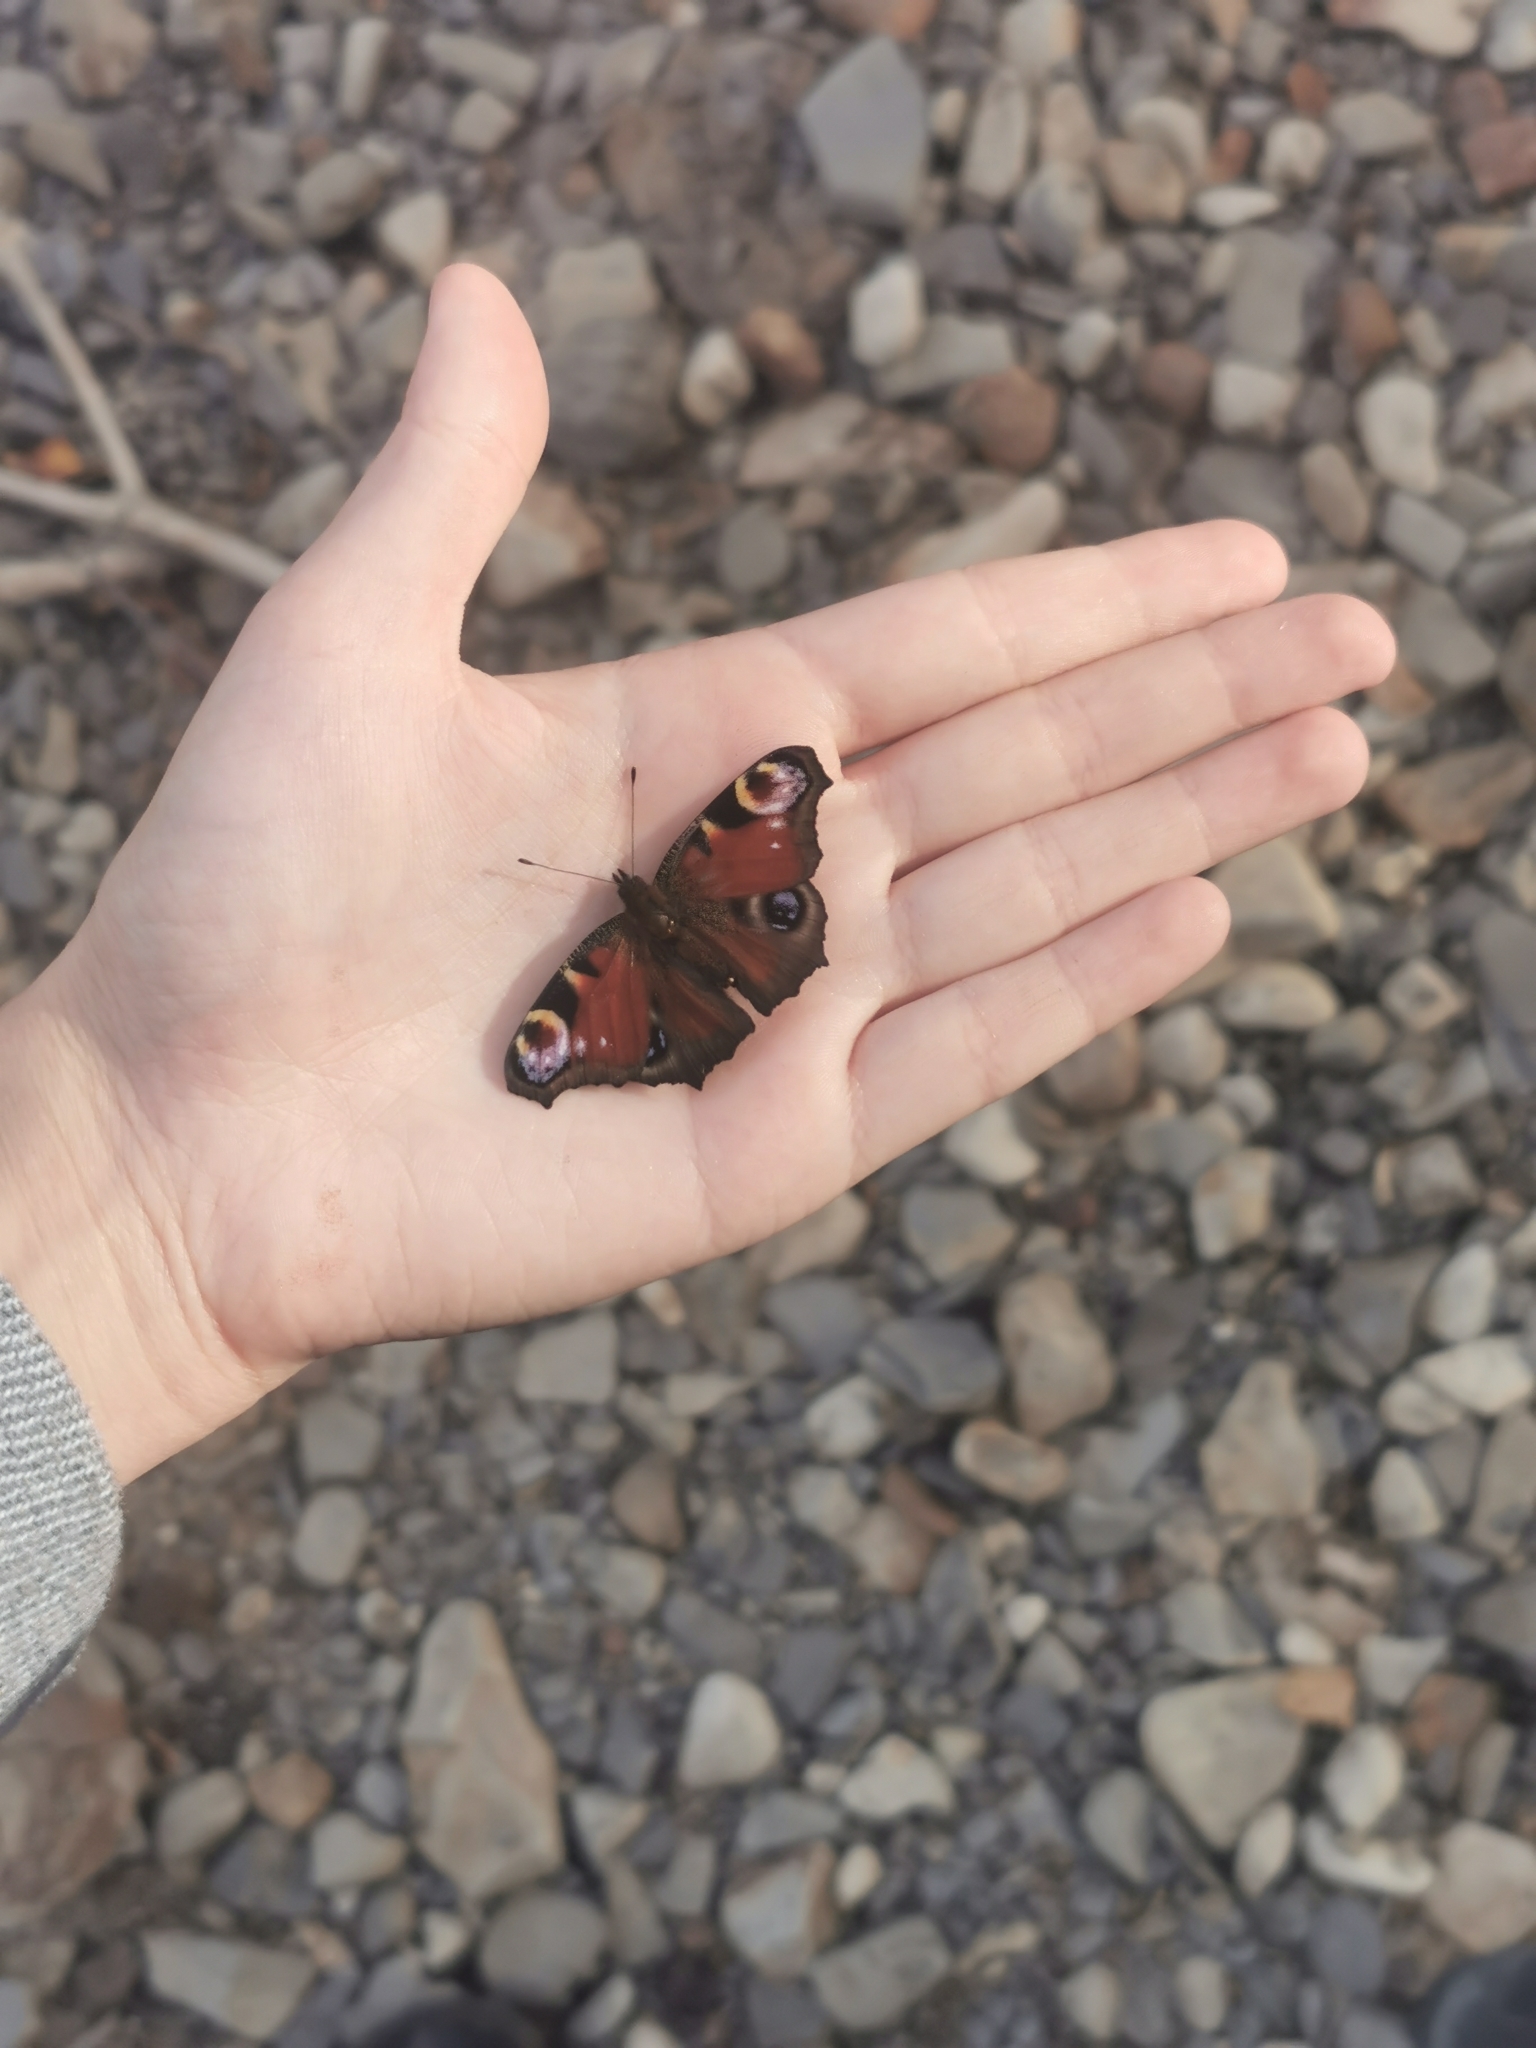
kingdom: Animalia
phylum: Arthropoda
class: Insecta
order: Lepidoptera
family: Nymphalidae
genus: Aglais
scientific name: Aglais io
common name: Peacock
